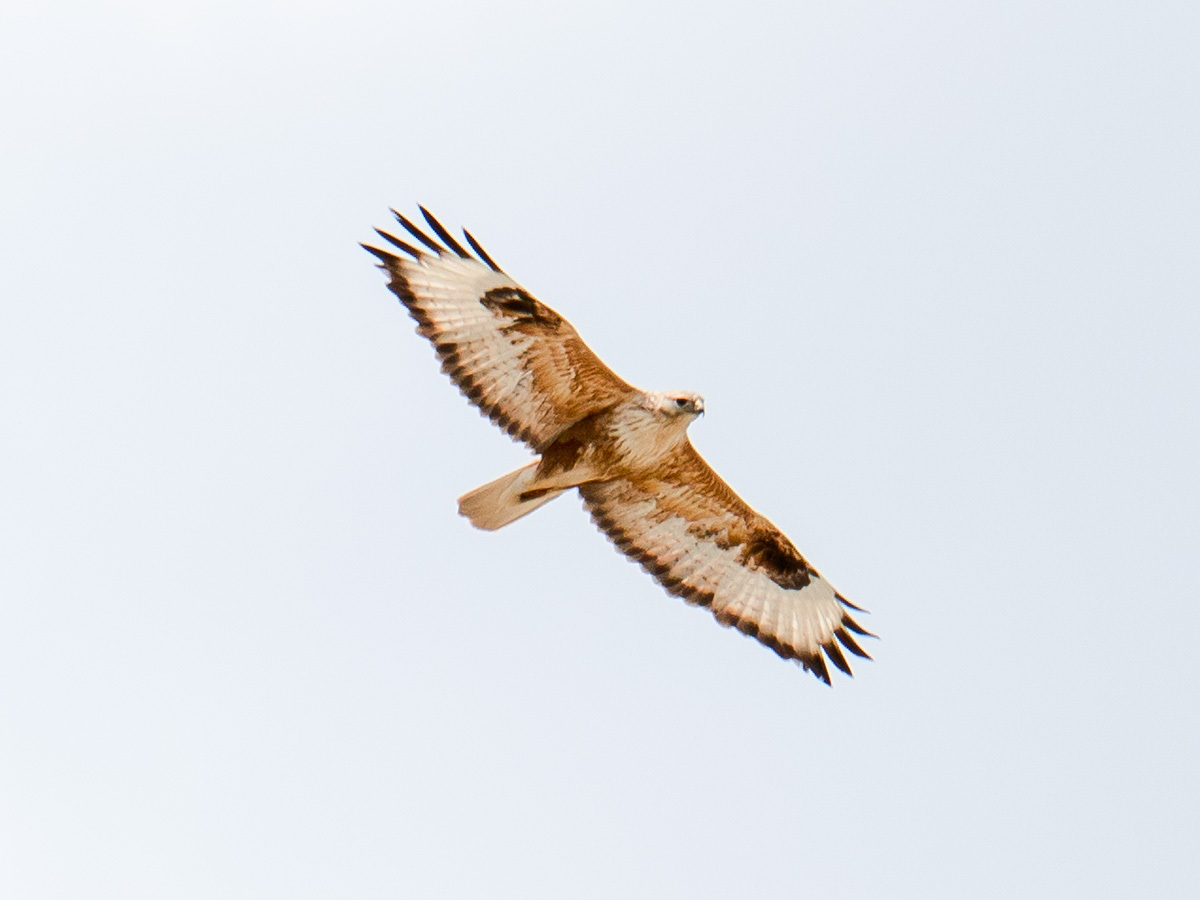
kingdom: Animalia
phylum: Chordata
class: Aves
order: Accipitriformes
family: Accipitridae
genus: Buteo
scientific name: Buteo rufinus
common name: Long-legged buzzard
